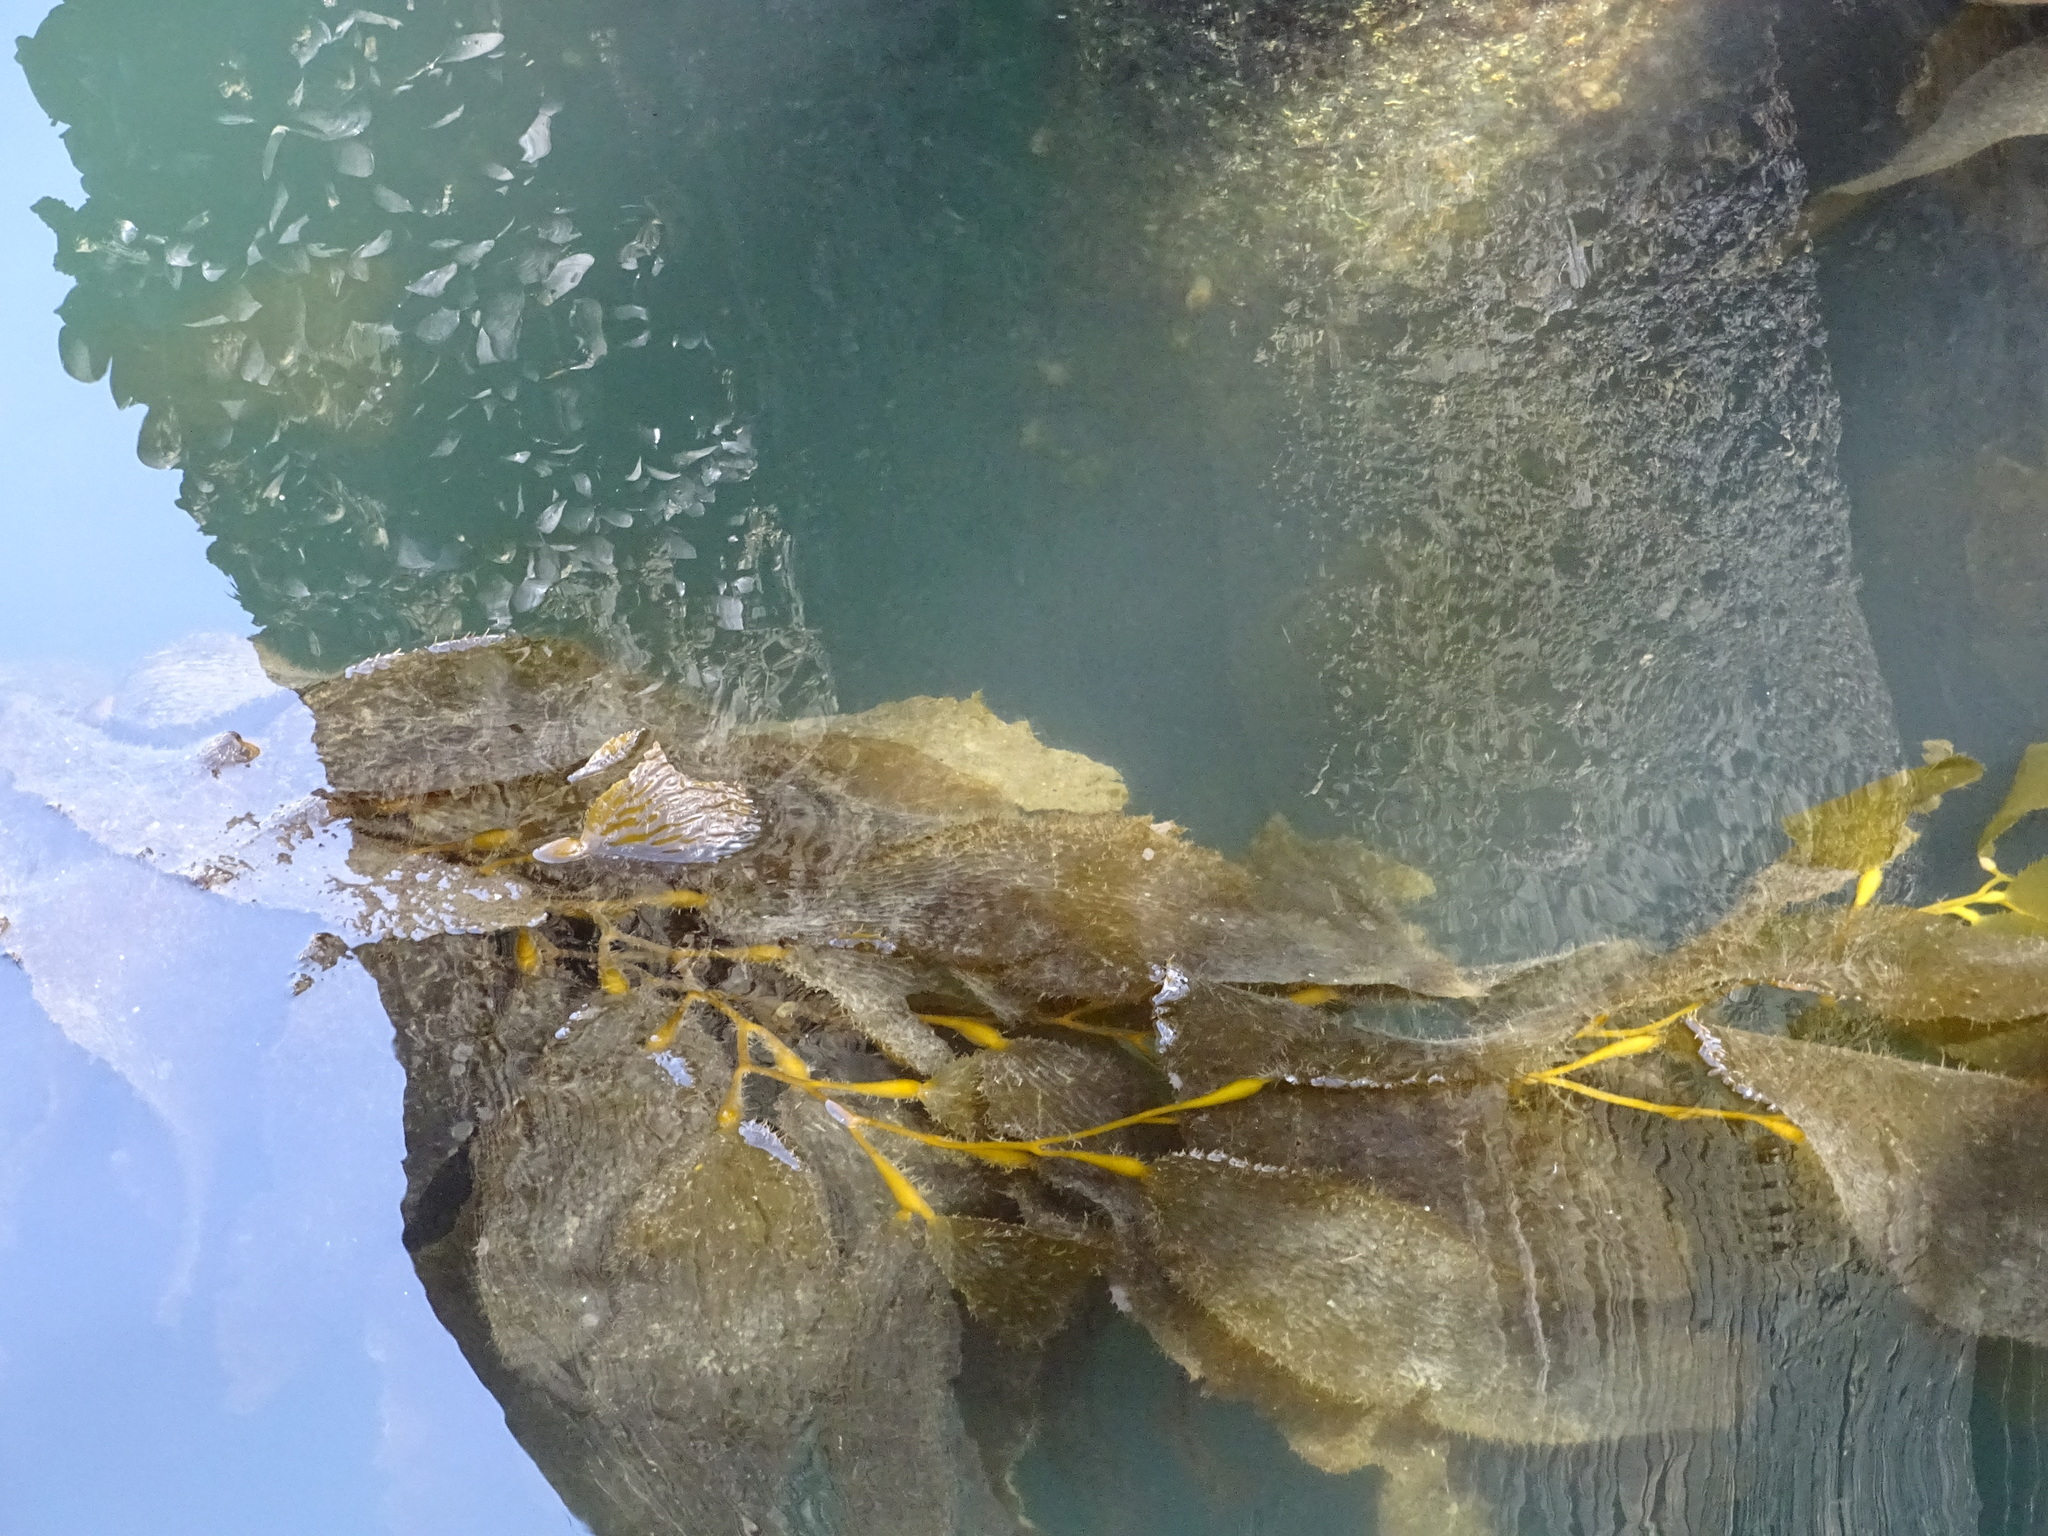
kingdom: Chromista
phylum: Ochrophyta
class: Phaeophyceae
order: Laminariales
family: Laminariaceae
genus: Macrocystis
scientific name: Macrocystis pyrifera
